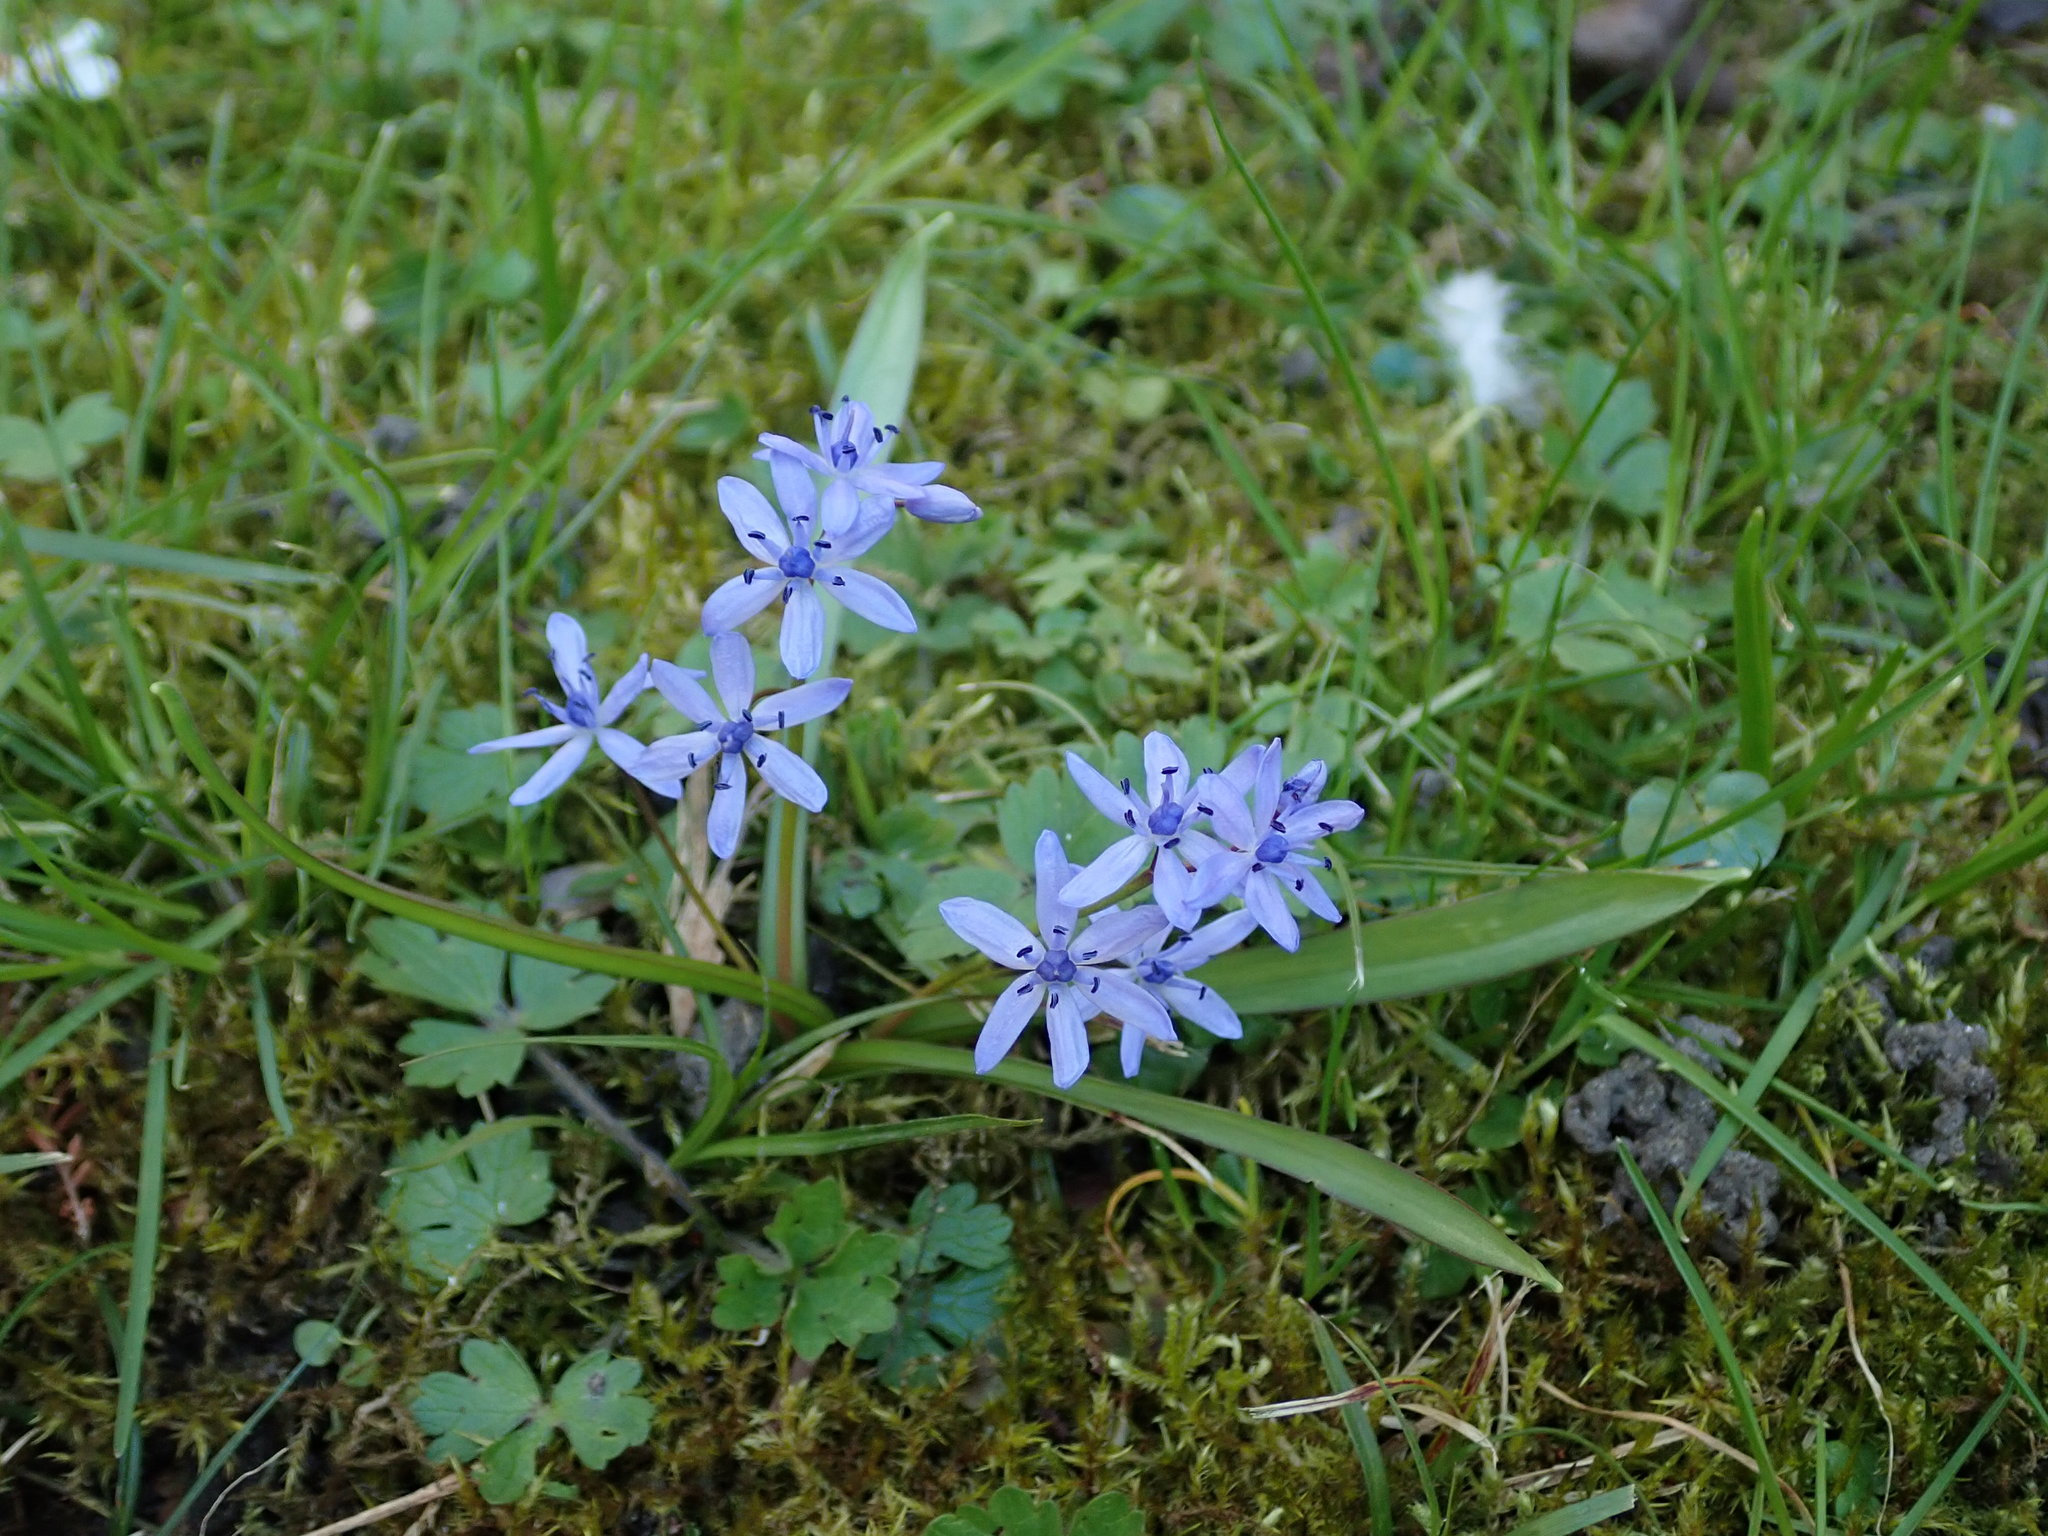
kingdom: Plantae
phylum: Tracheophyta
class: Liliopsida
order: Asparagales
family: Asparagaceae
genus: Scilla
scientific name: Scilla bifolia
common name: Alpine squill
